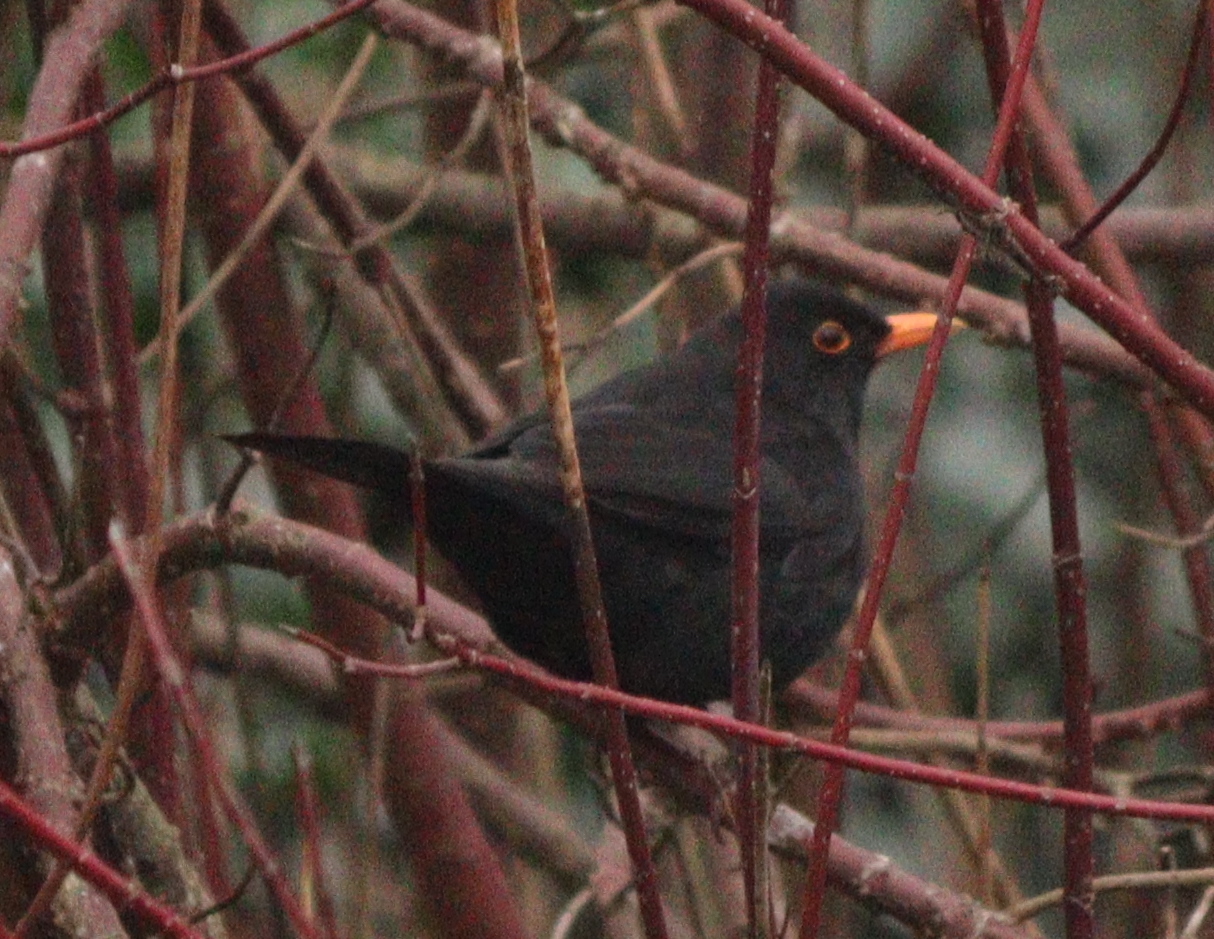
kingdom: Animalia
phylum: Chordata
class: Aves
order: Passeriformes
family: Turdidae
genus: Turdus
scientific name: Turdus merula
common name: Common blackbird
